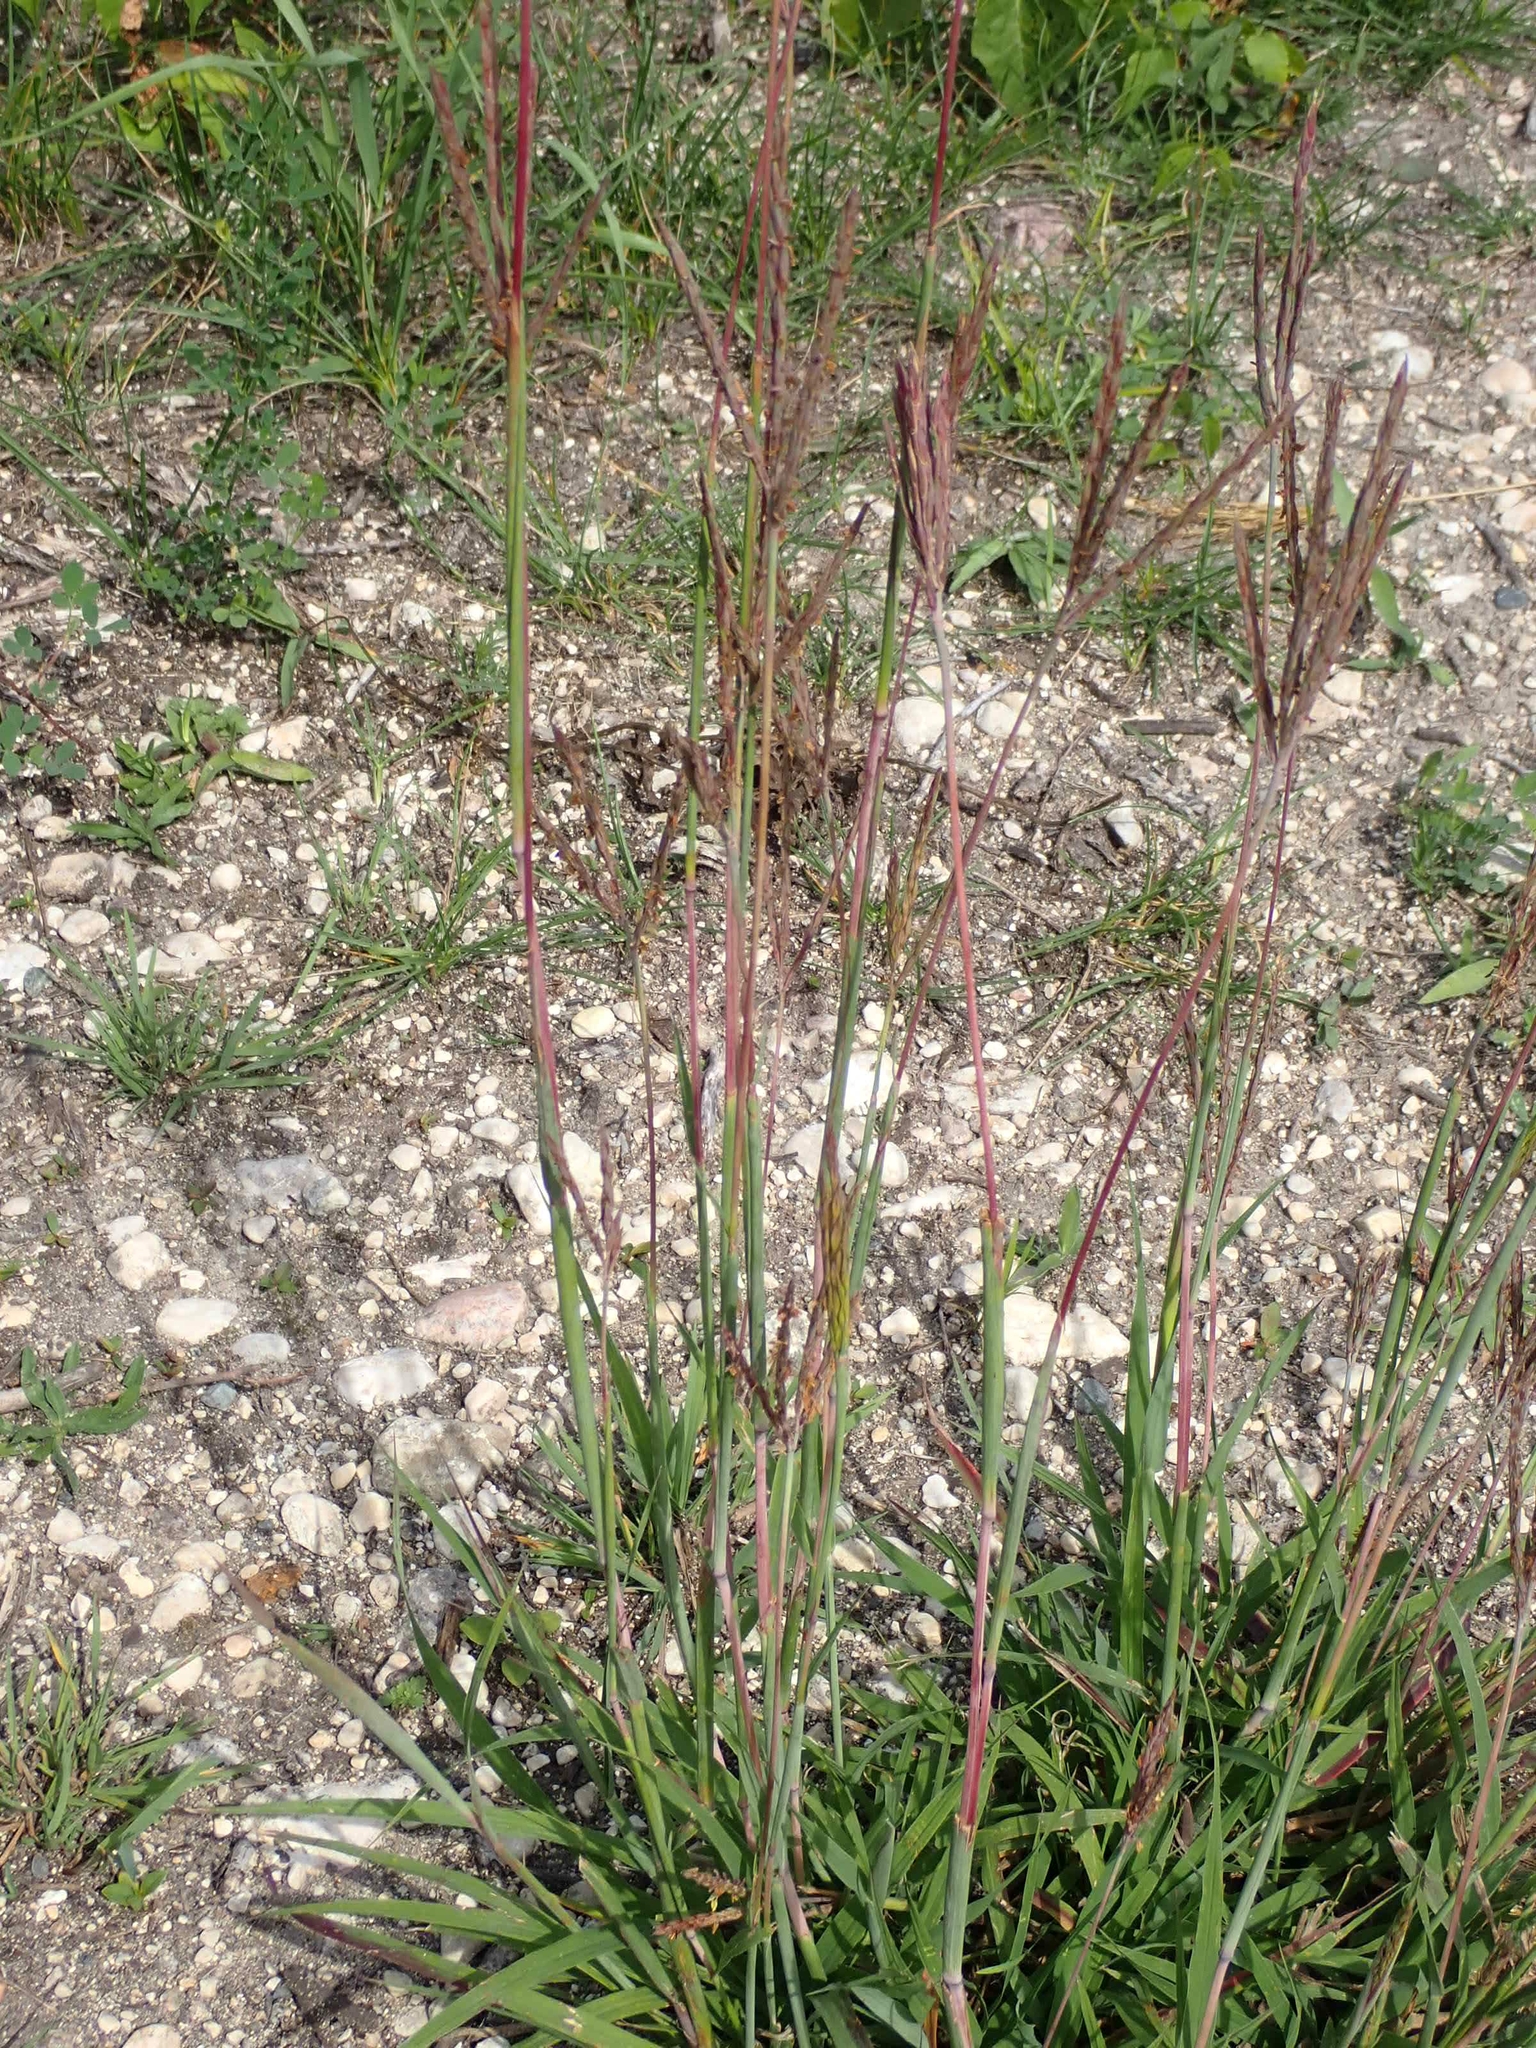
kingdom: Plantae
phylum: Tracheophyta
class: Liliopsida
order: Poales
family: Poaceae
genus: Andropogon
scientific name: Andropogon gerardi
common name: Big bluestem
